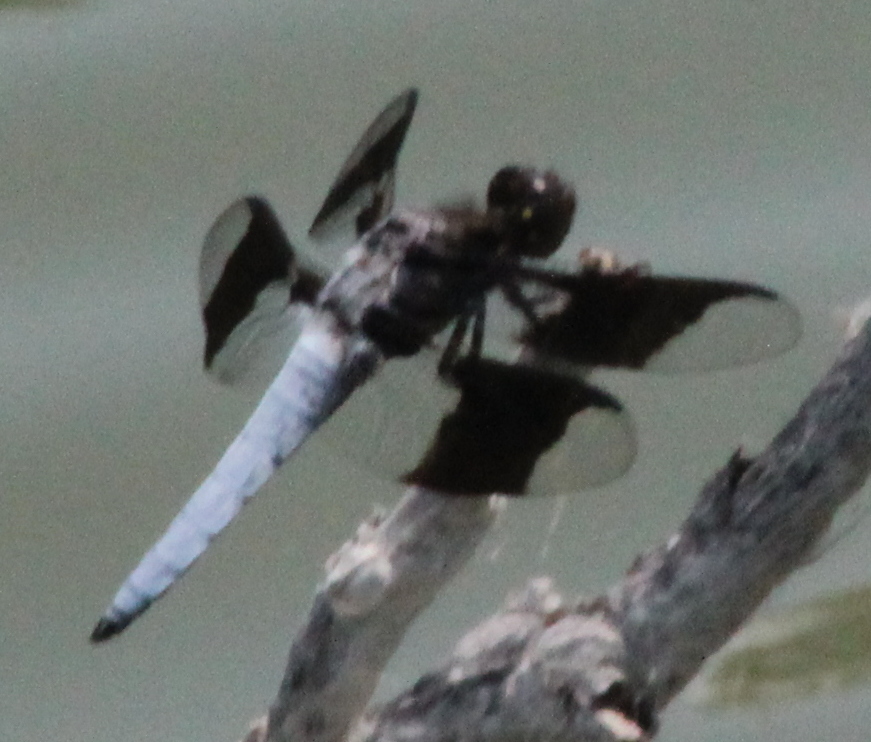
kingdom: Animalia
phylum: Arthropoda
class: Insecta
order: Odonata
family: Libellulidae
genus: Plathemis
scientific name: Plathemis lydia
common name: Common whitetail
